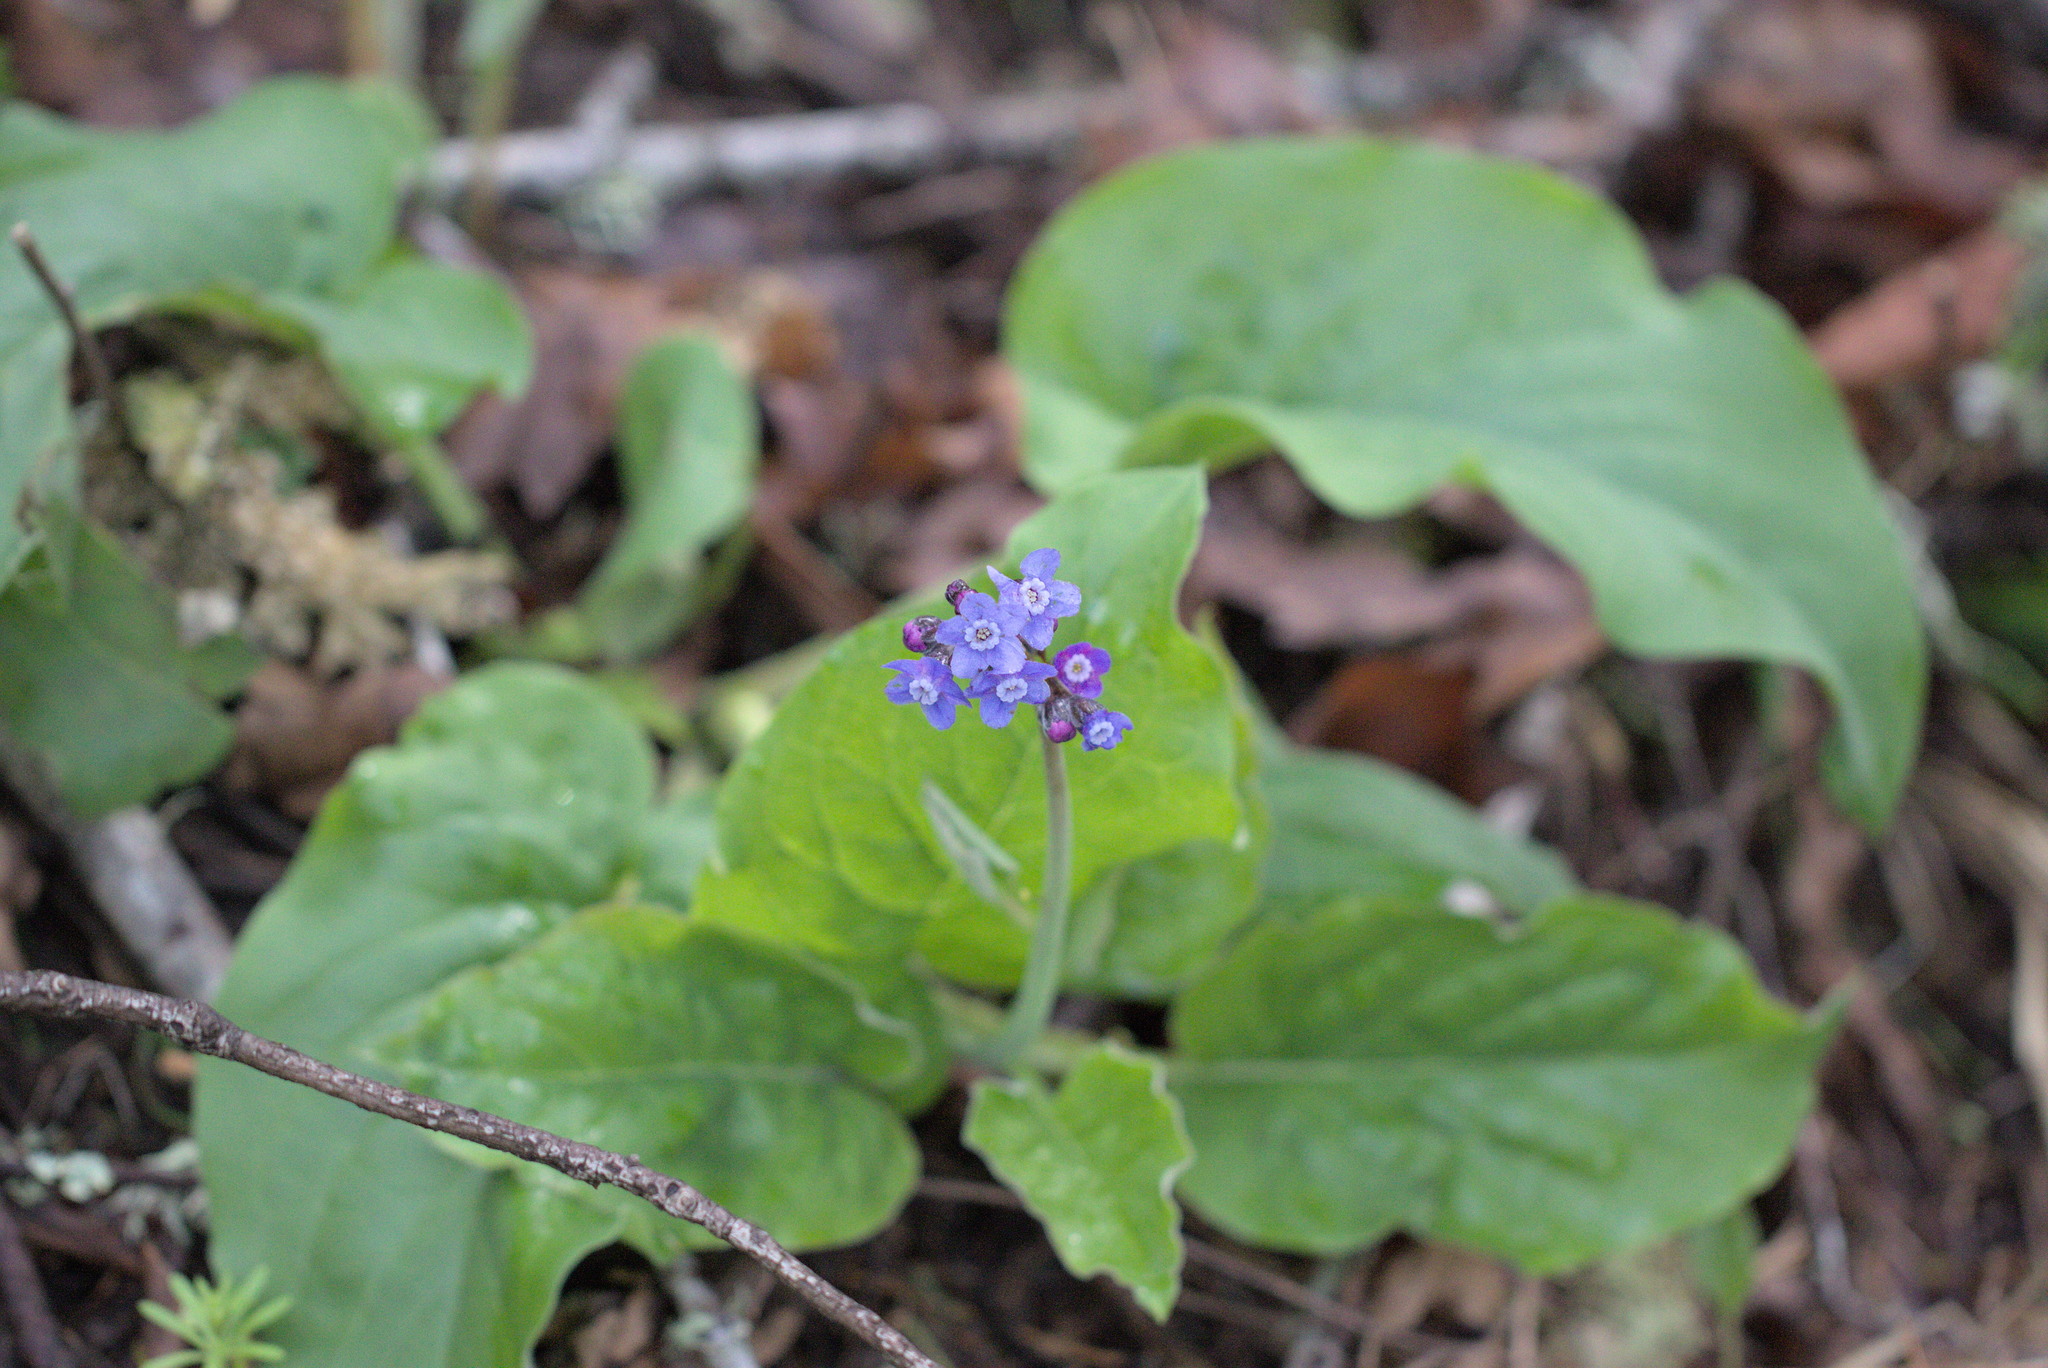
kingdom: Plantae
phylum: Tracheophyta
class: Magnoliopsida
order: Boraginales
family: Boraginaceae
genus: Adelinia
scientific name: Adelinia grande
